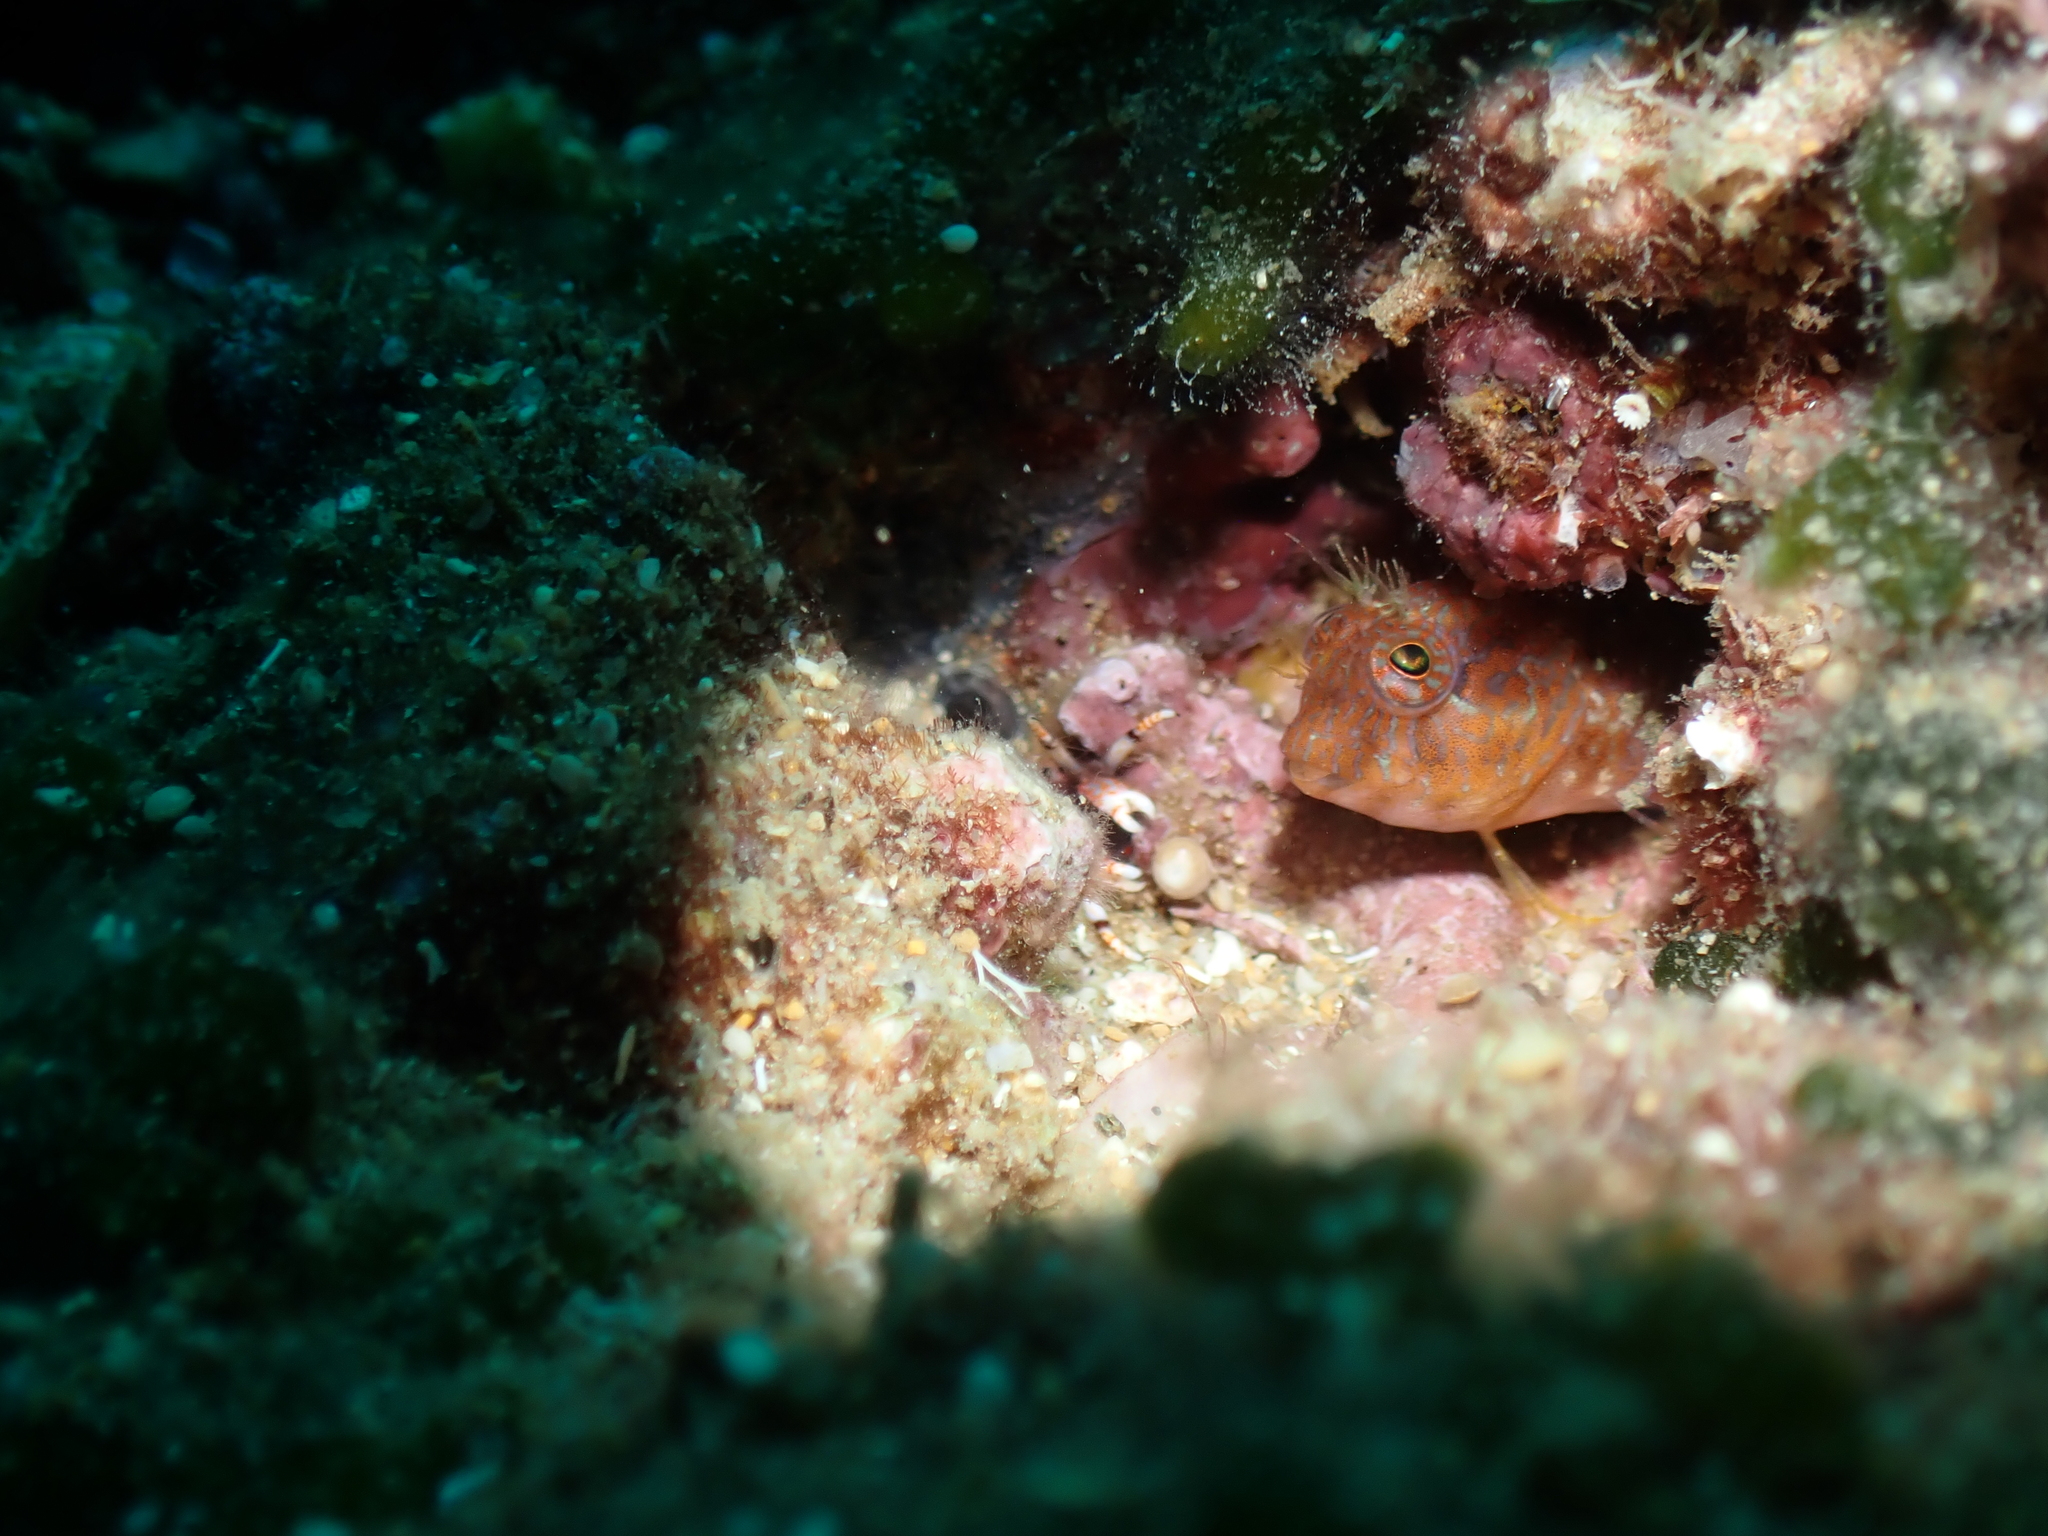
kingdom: Animalia
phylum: Chordata
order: Perciformes
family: Blenniidae
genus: Parablennius
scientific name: Parablennius zvonimiri
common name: Red blenny
